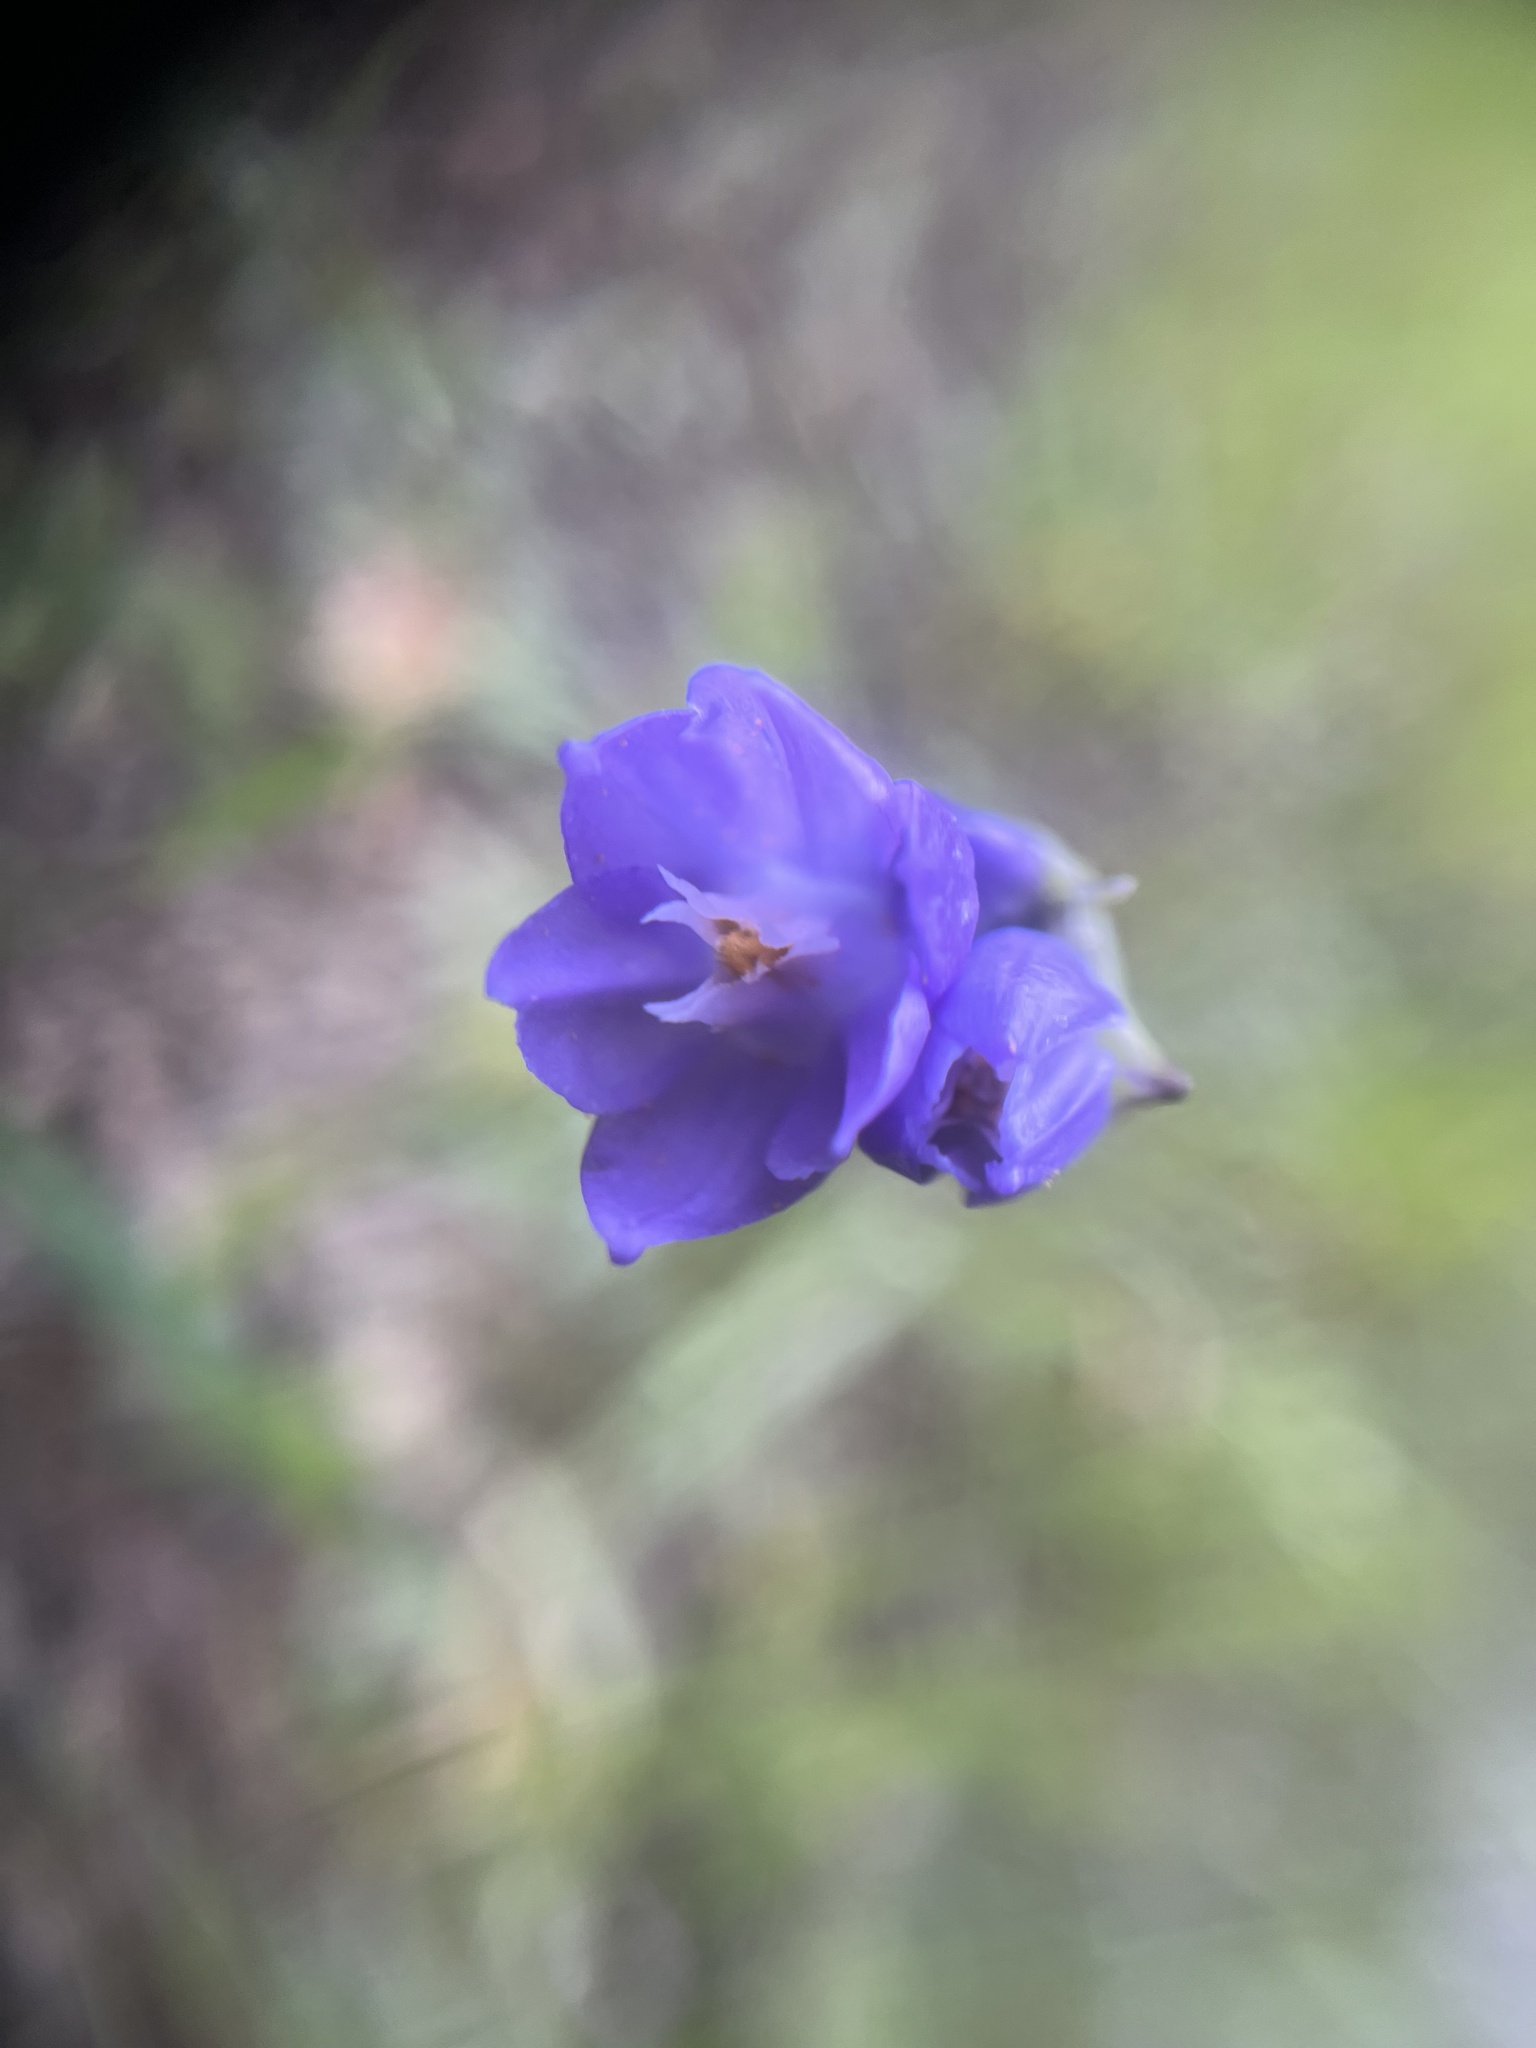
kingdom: Plantae
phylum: Tracheophyta
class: Liliopsida
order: Asparagales
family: Asparagaceae
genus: Dipterostemon
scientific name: Dipterostemon capitatus
